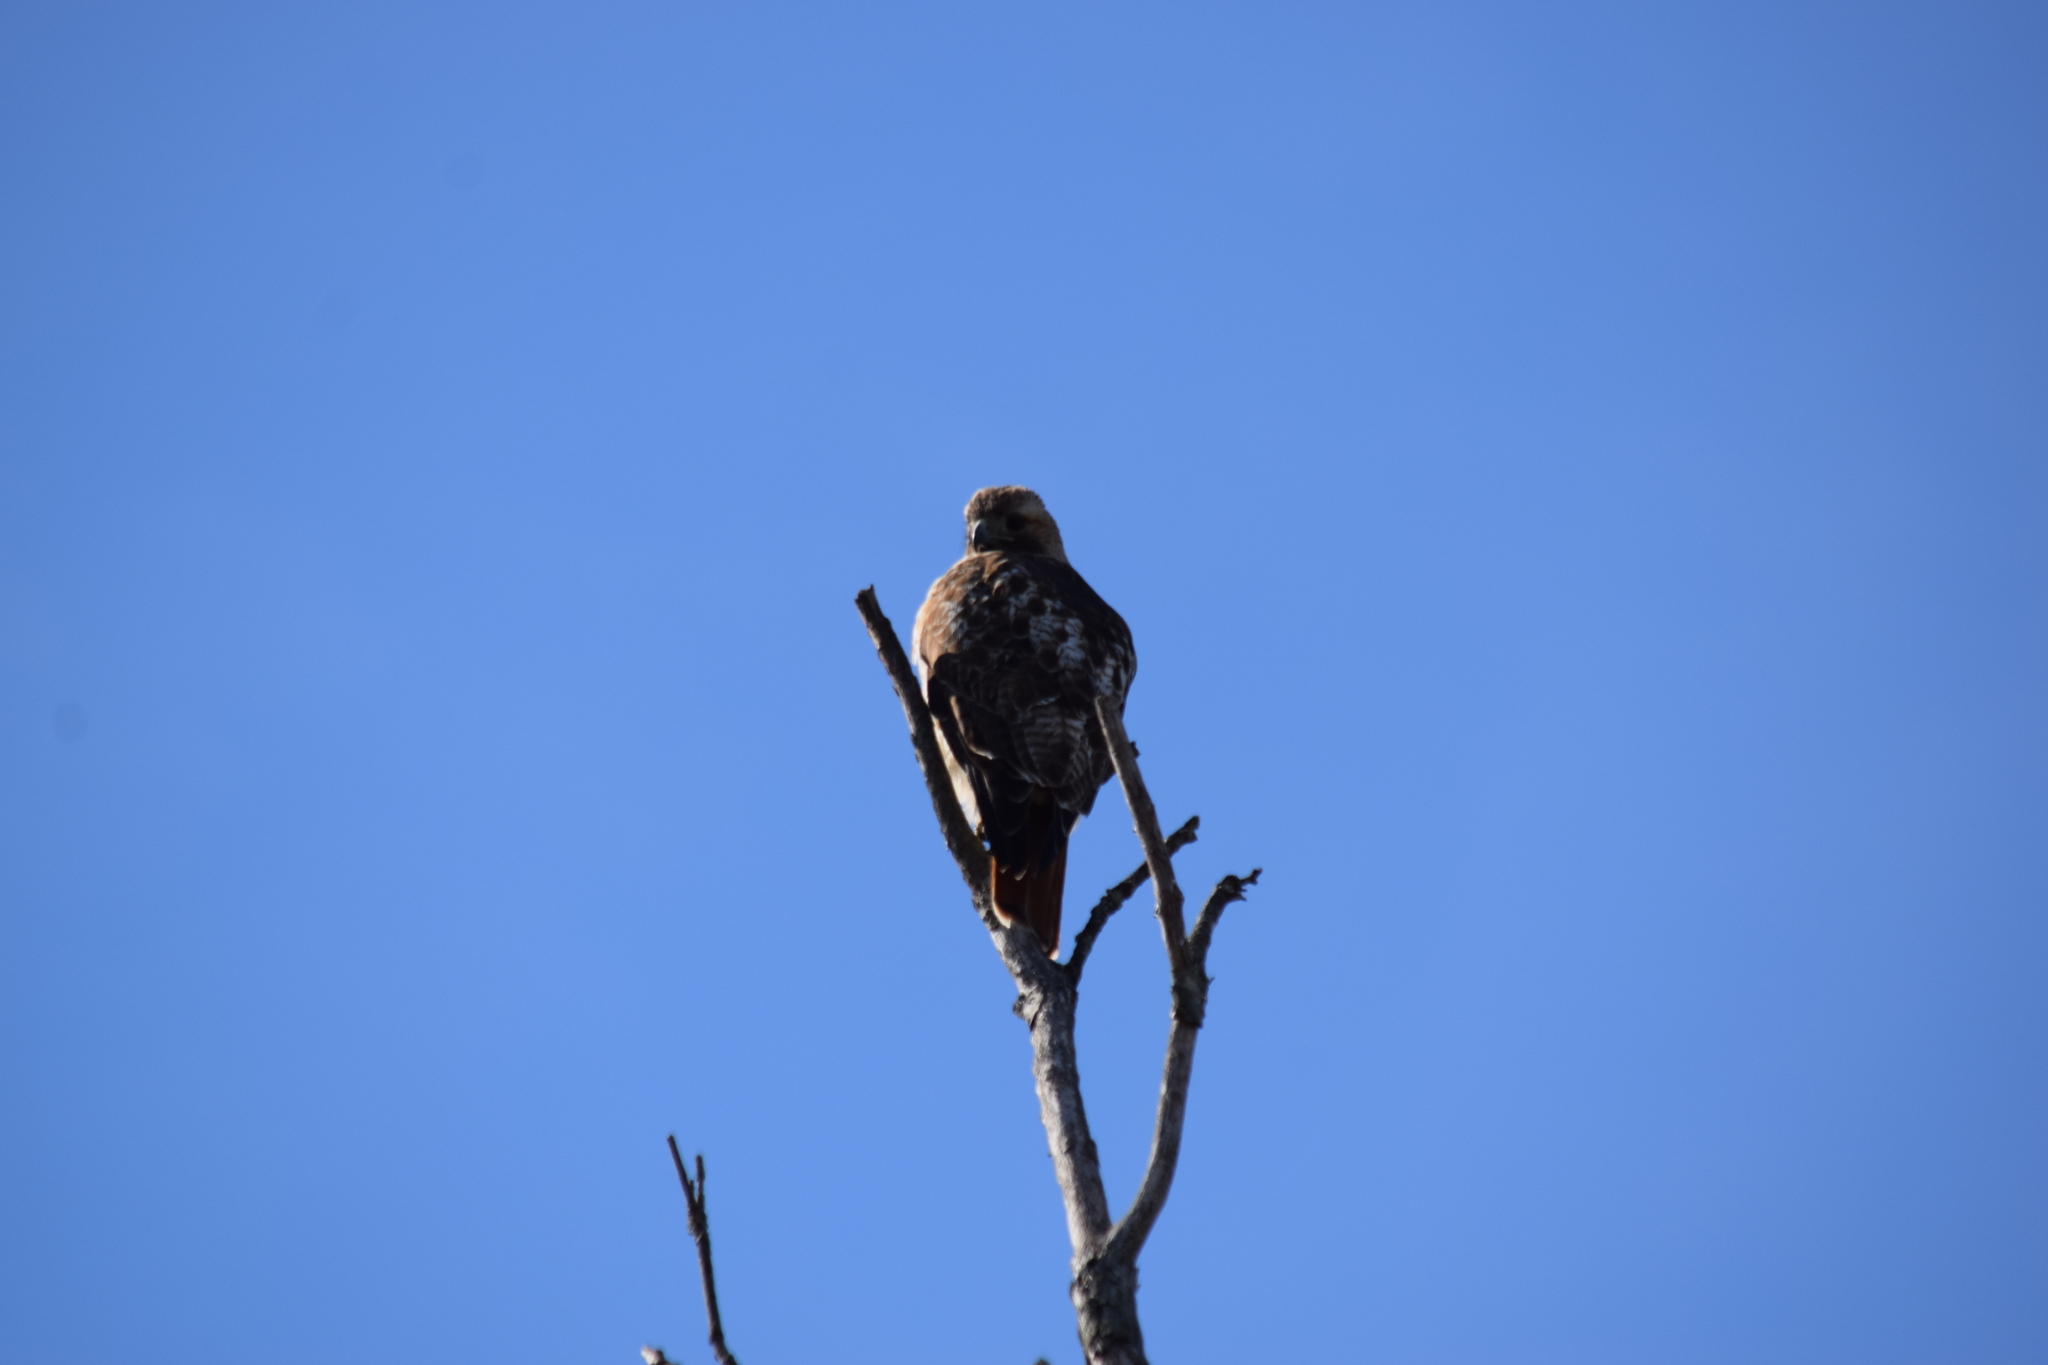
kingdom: Animalia
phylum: Chordata
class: Aves
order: Accipitriformes
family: Accipitridae
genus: Buteo
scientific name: Buteo jamaicensis
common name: Red-tailed hawk
